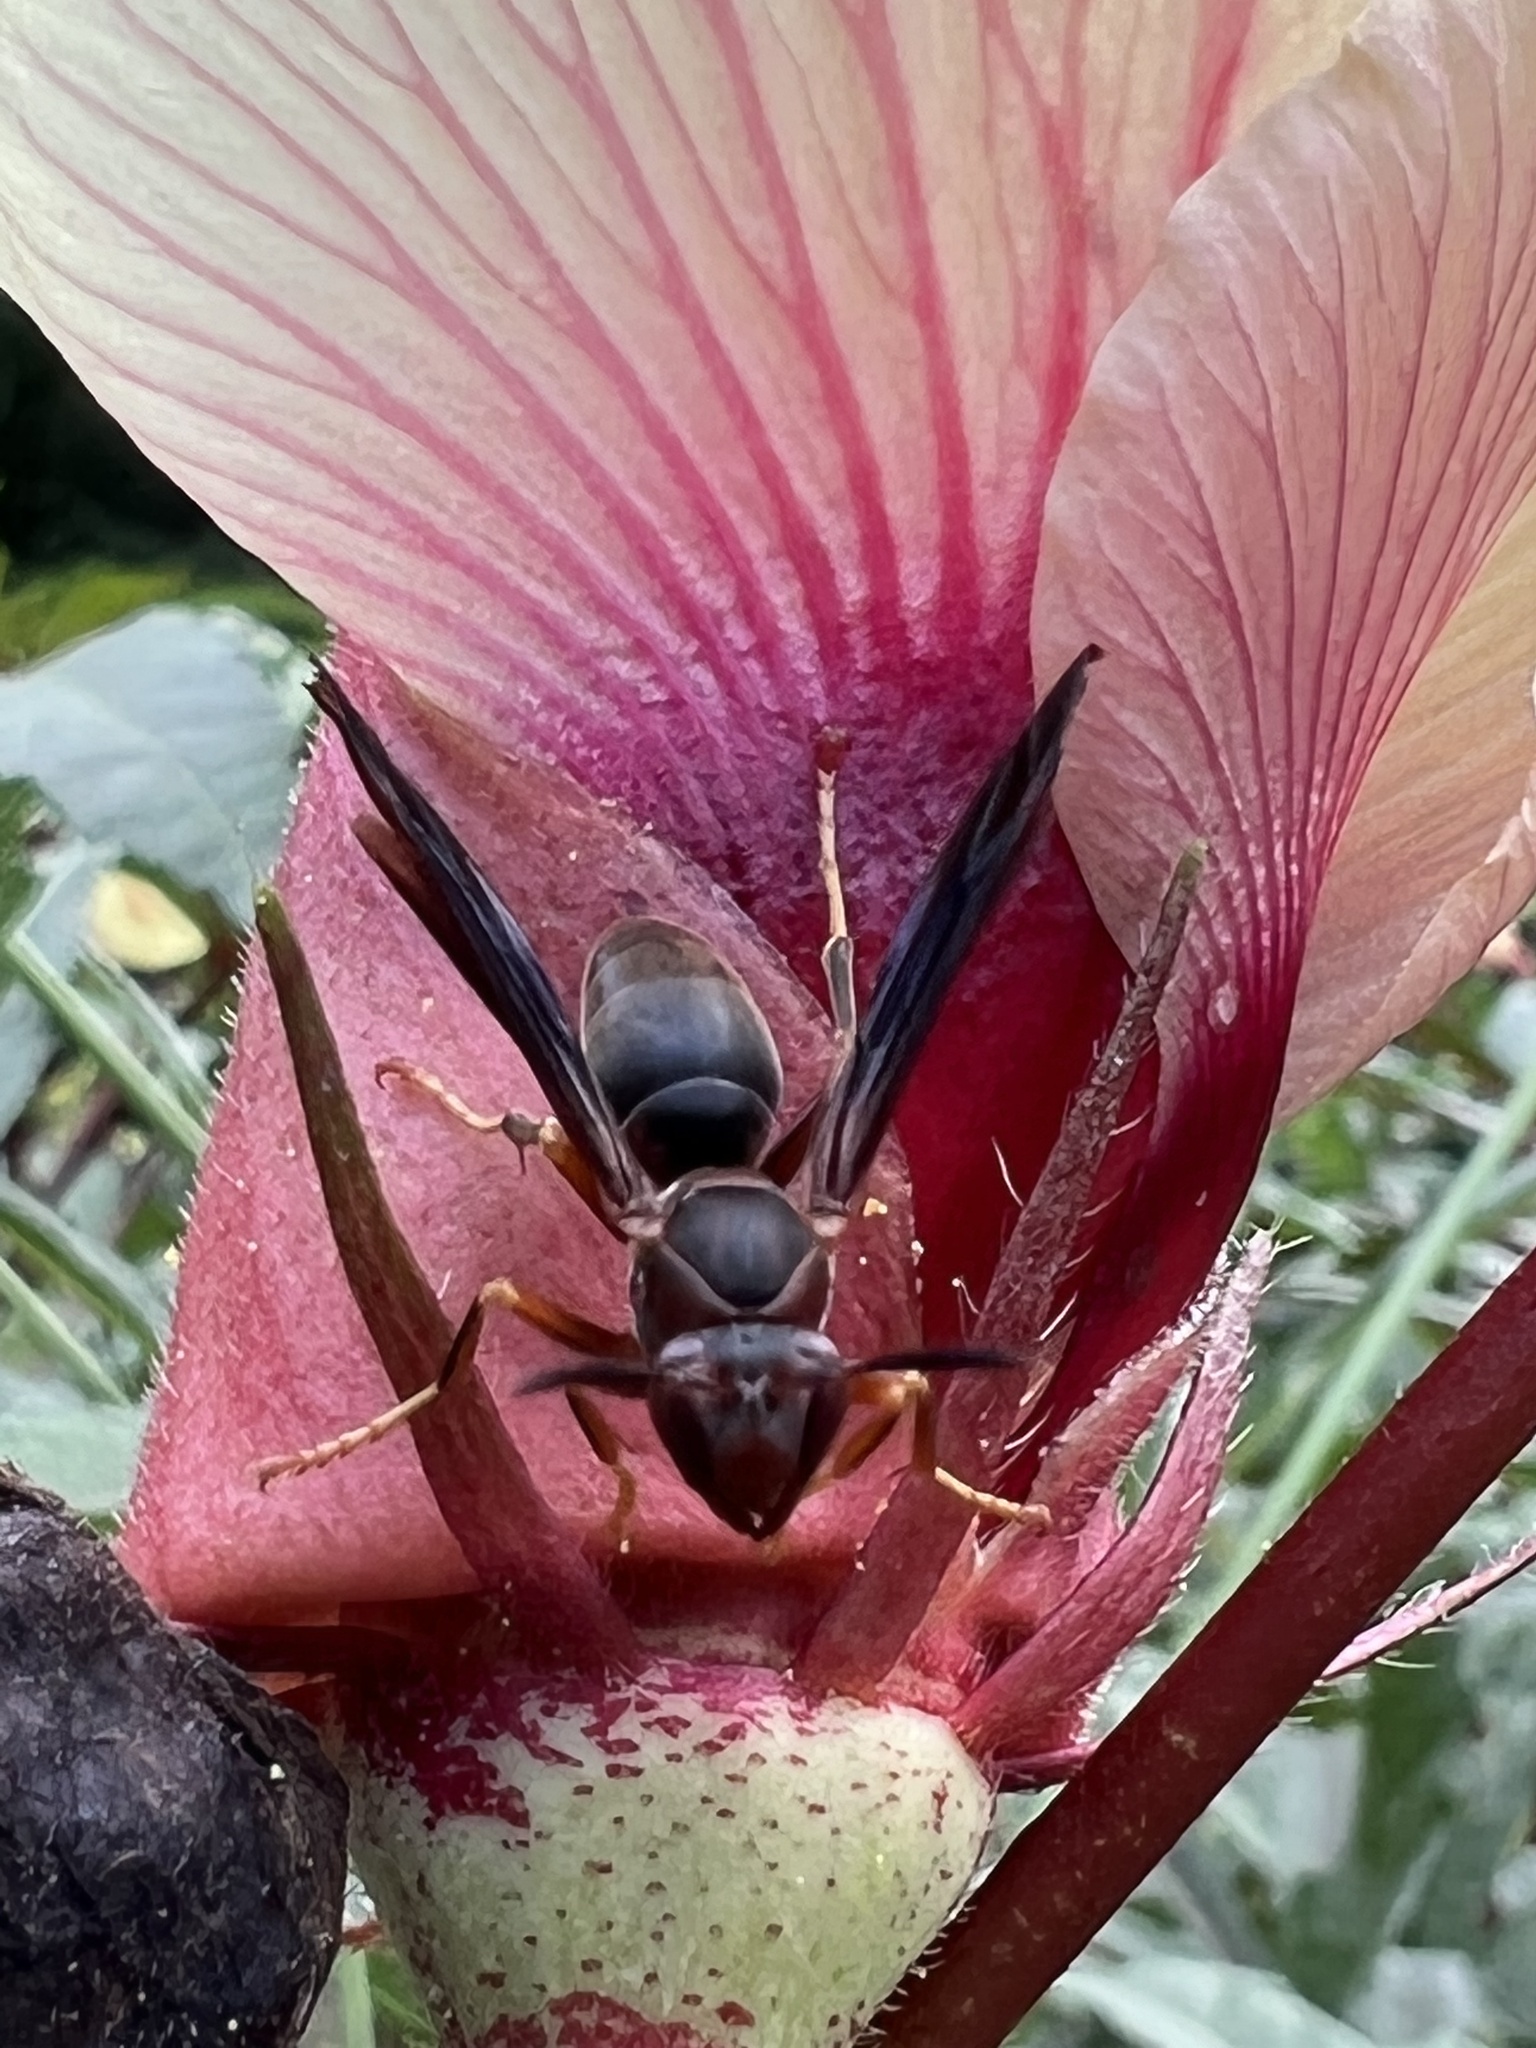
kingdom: Animalia
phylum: Arthropoda
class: Insecta
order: Hymenoptera
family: Eumenidae
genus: Polistes
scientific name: Polistes metricus
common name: Metric paper wasp
